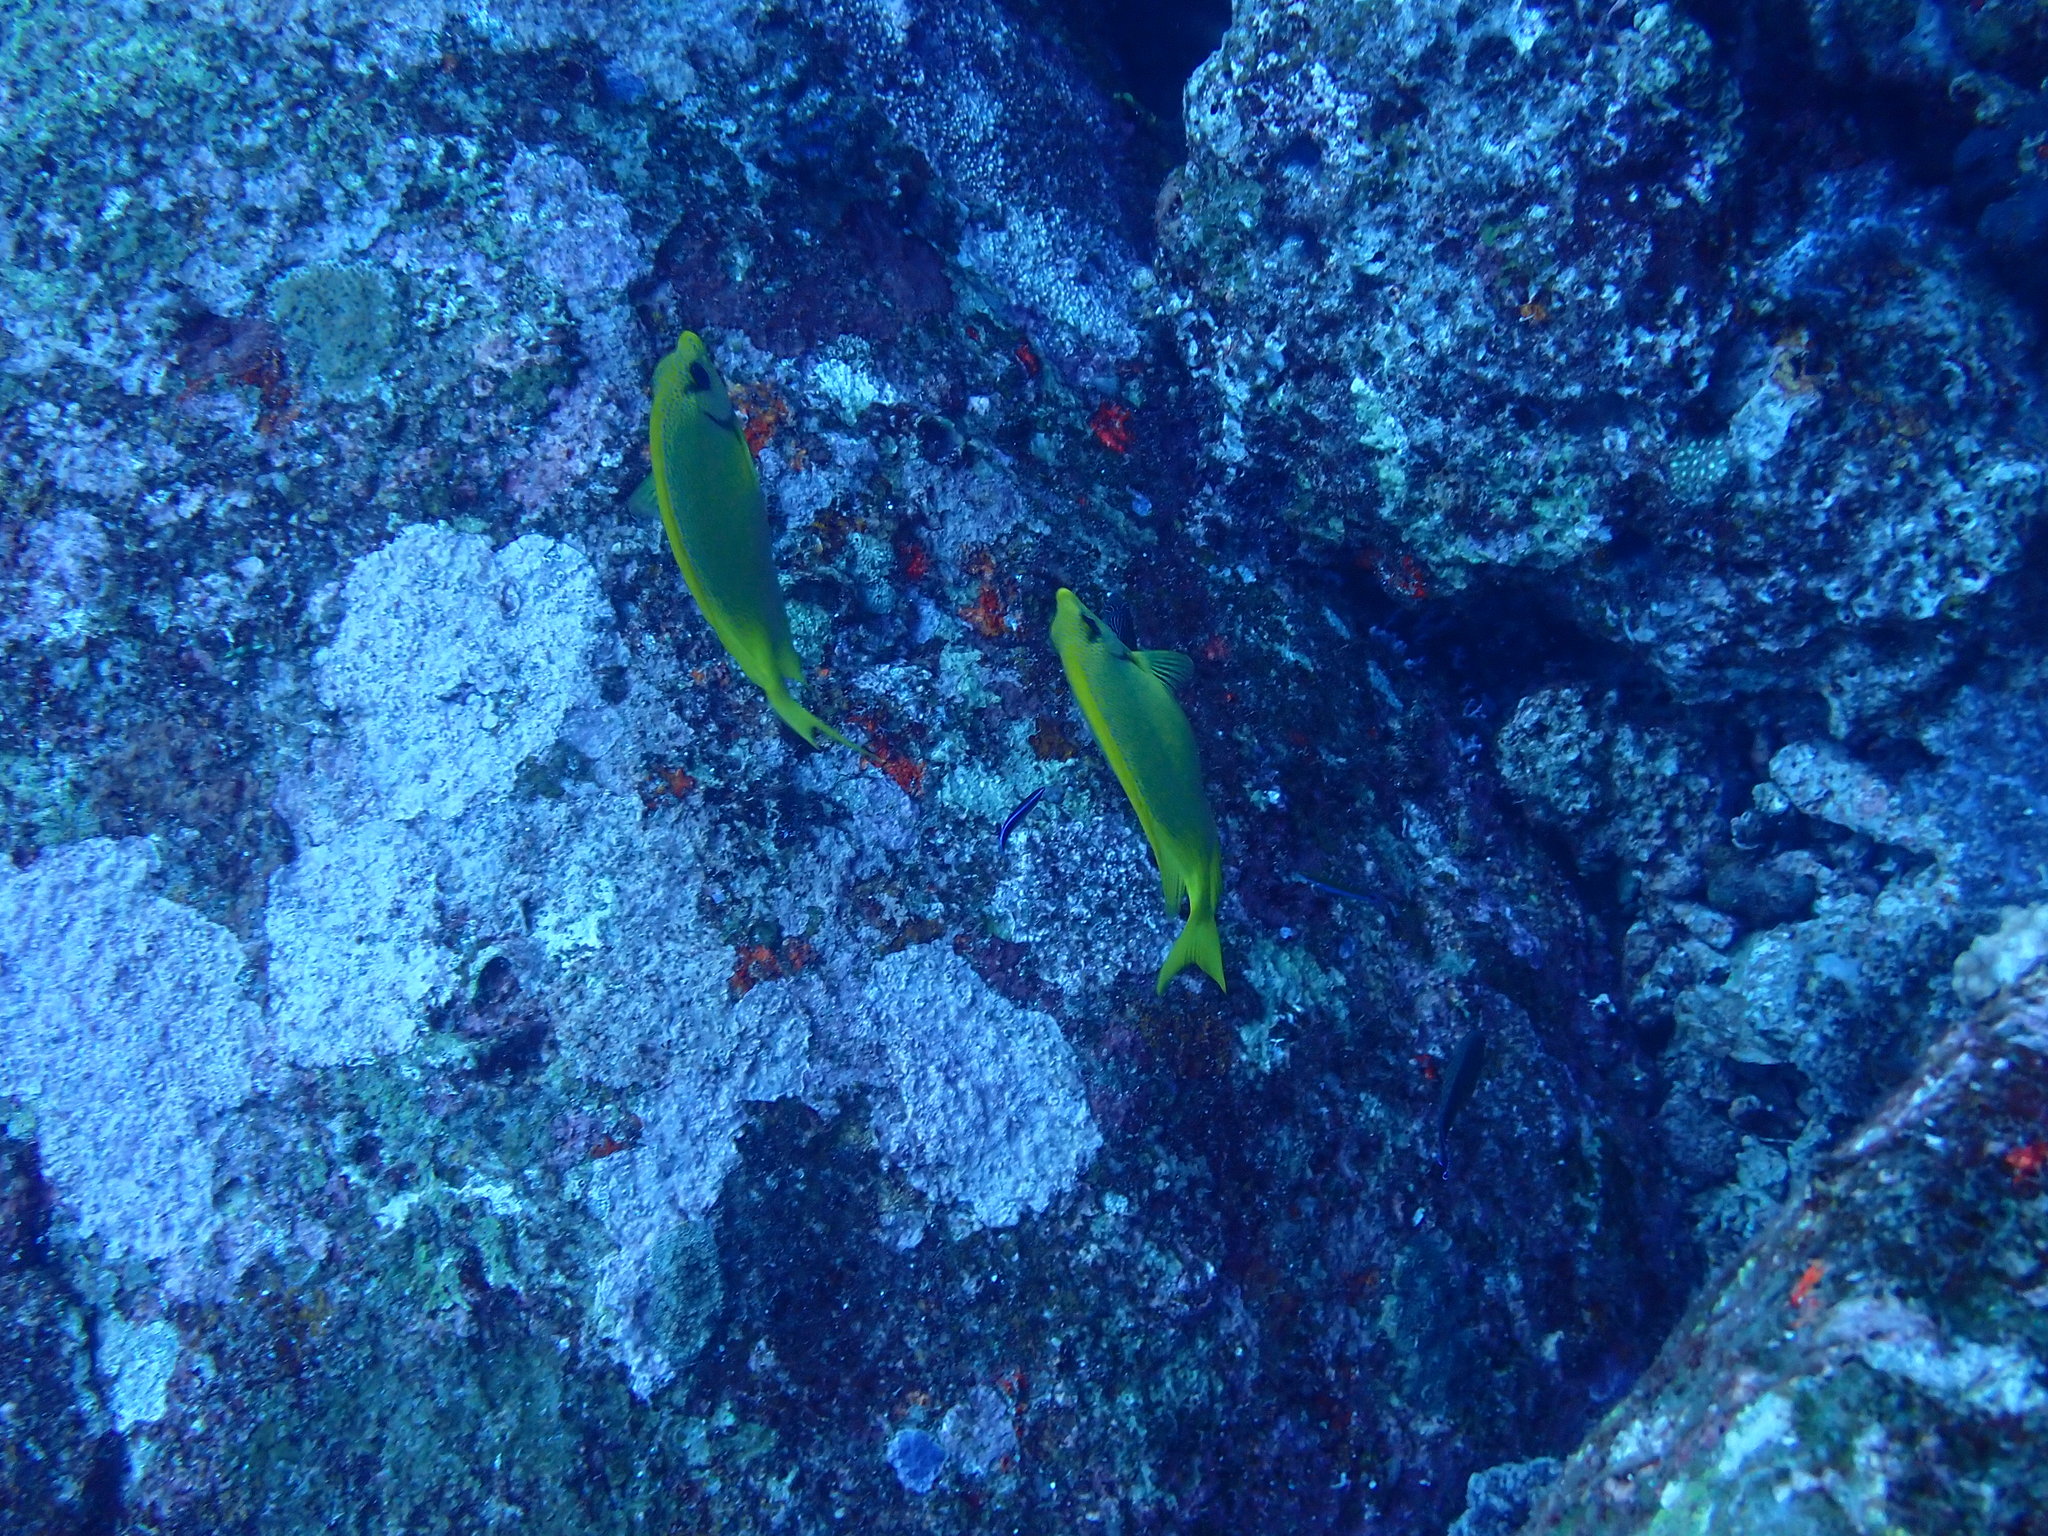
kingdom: Animalia
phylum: Chordata
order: Perciformes
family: Siganidae
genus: Siganus
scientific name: Siganus corallinus
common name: Coral rabbitfish
